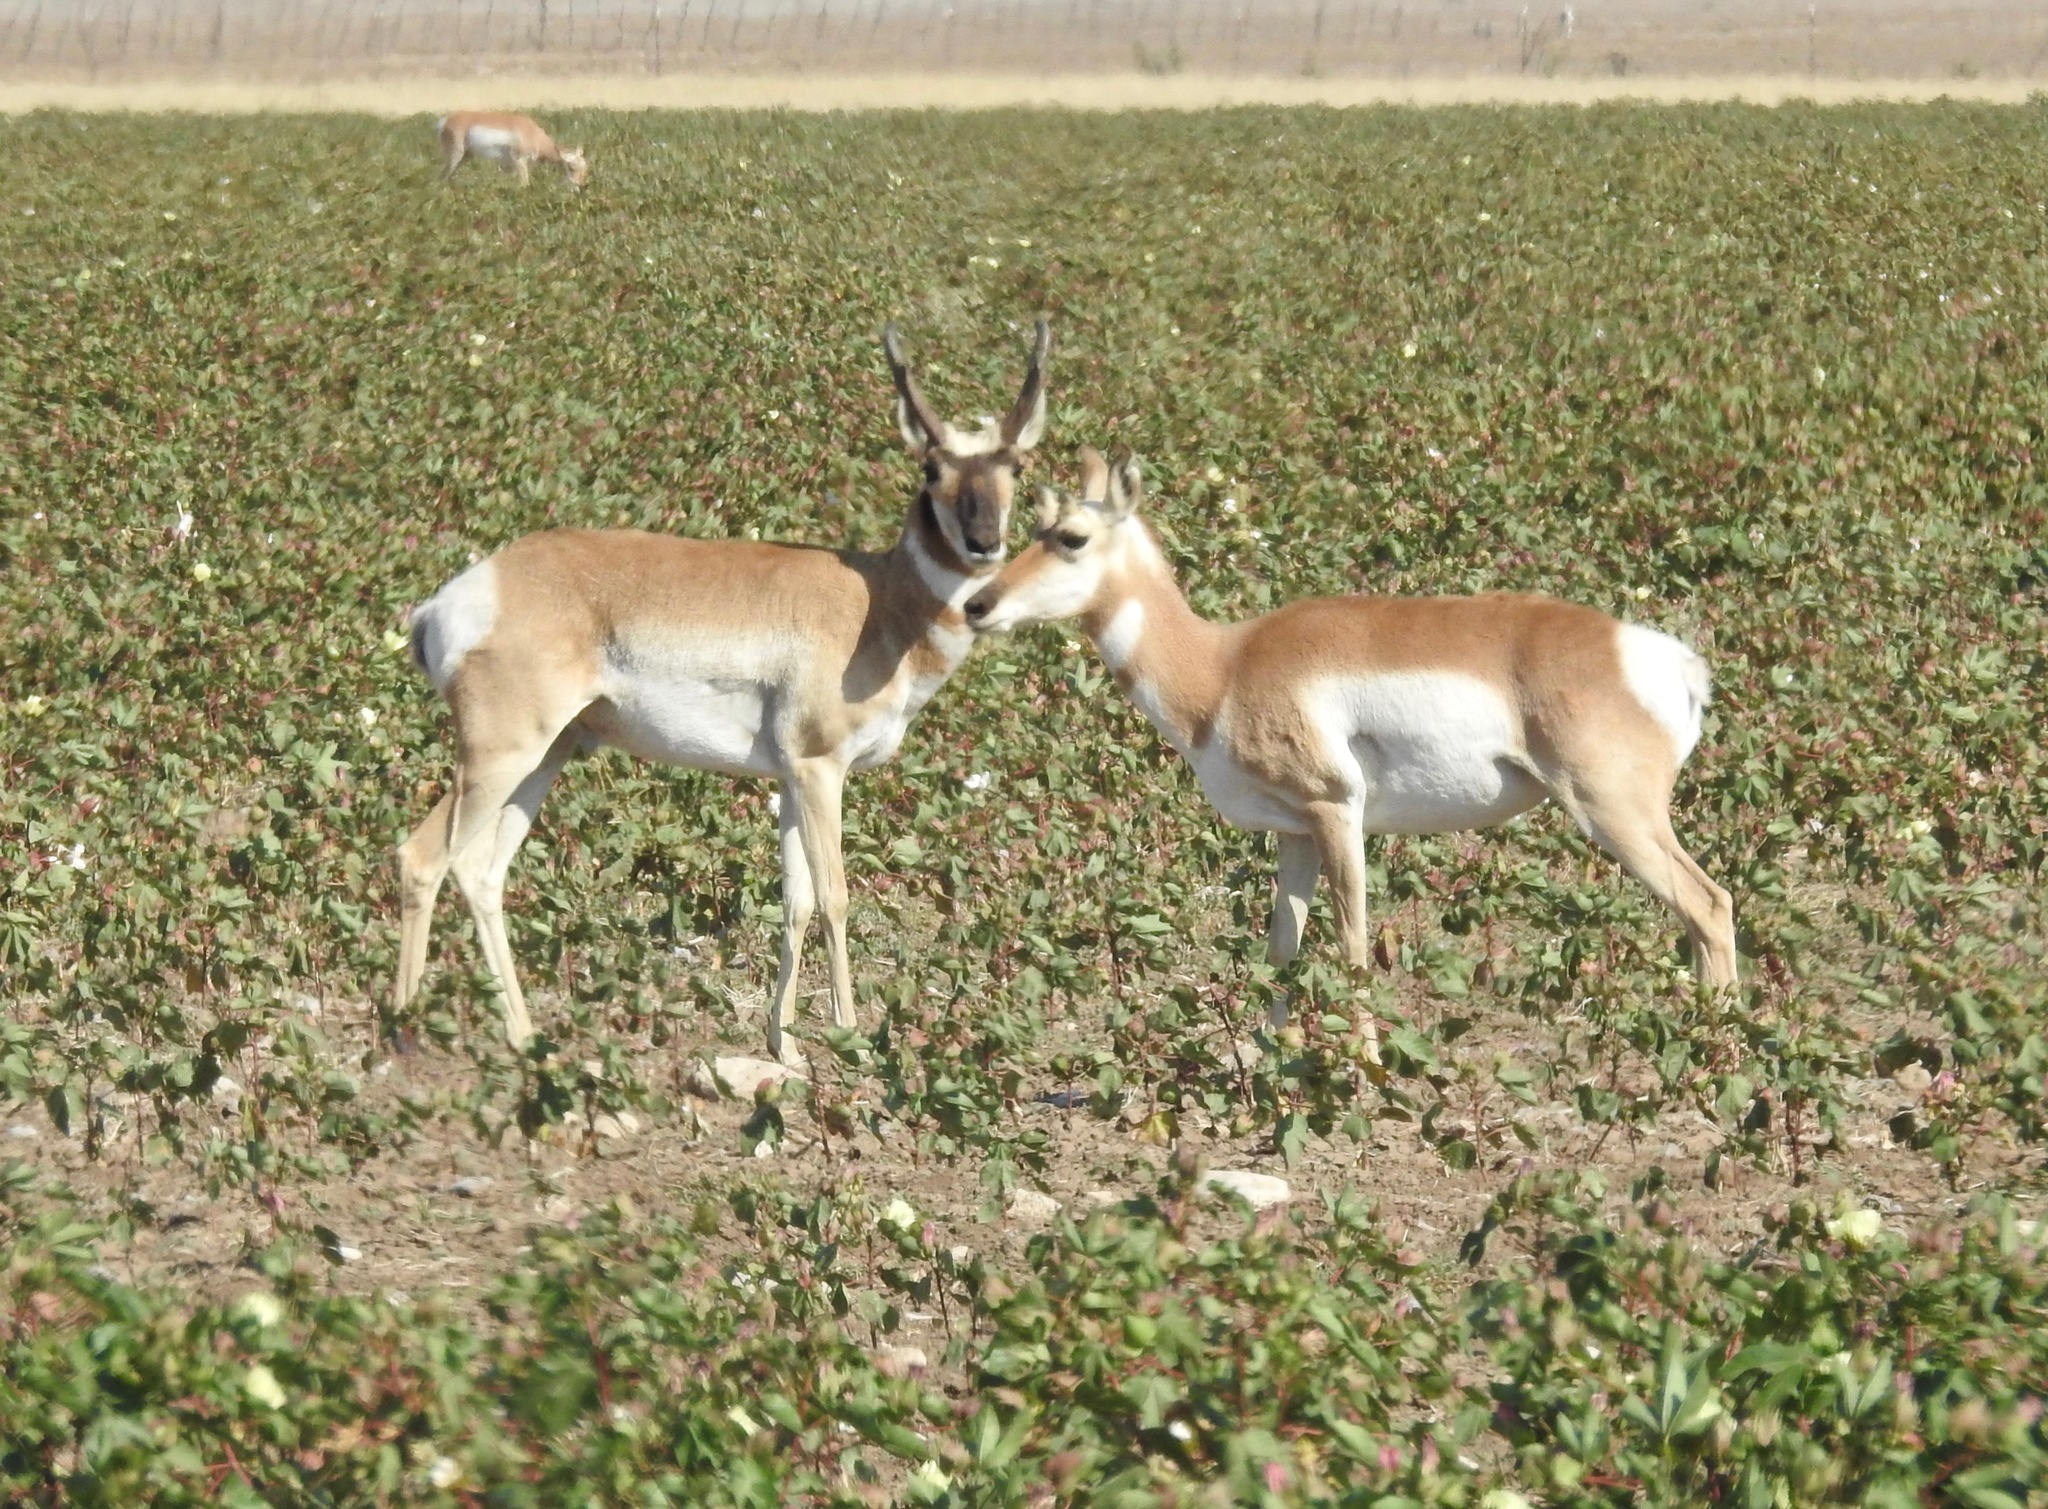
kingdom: Animalia
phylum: Chordata
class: Mammalia
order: Artiodactyla
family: Antilocapridae
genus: Antilocapra
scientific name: Antilocapra americana
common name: Pronghorn
